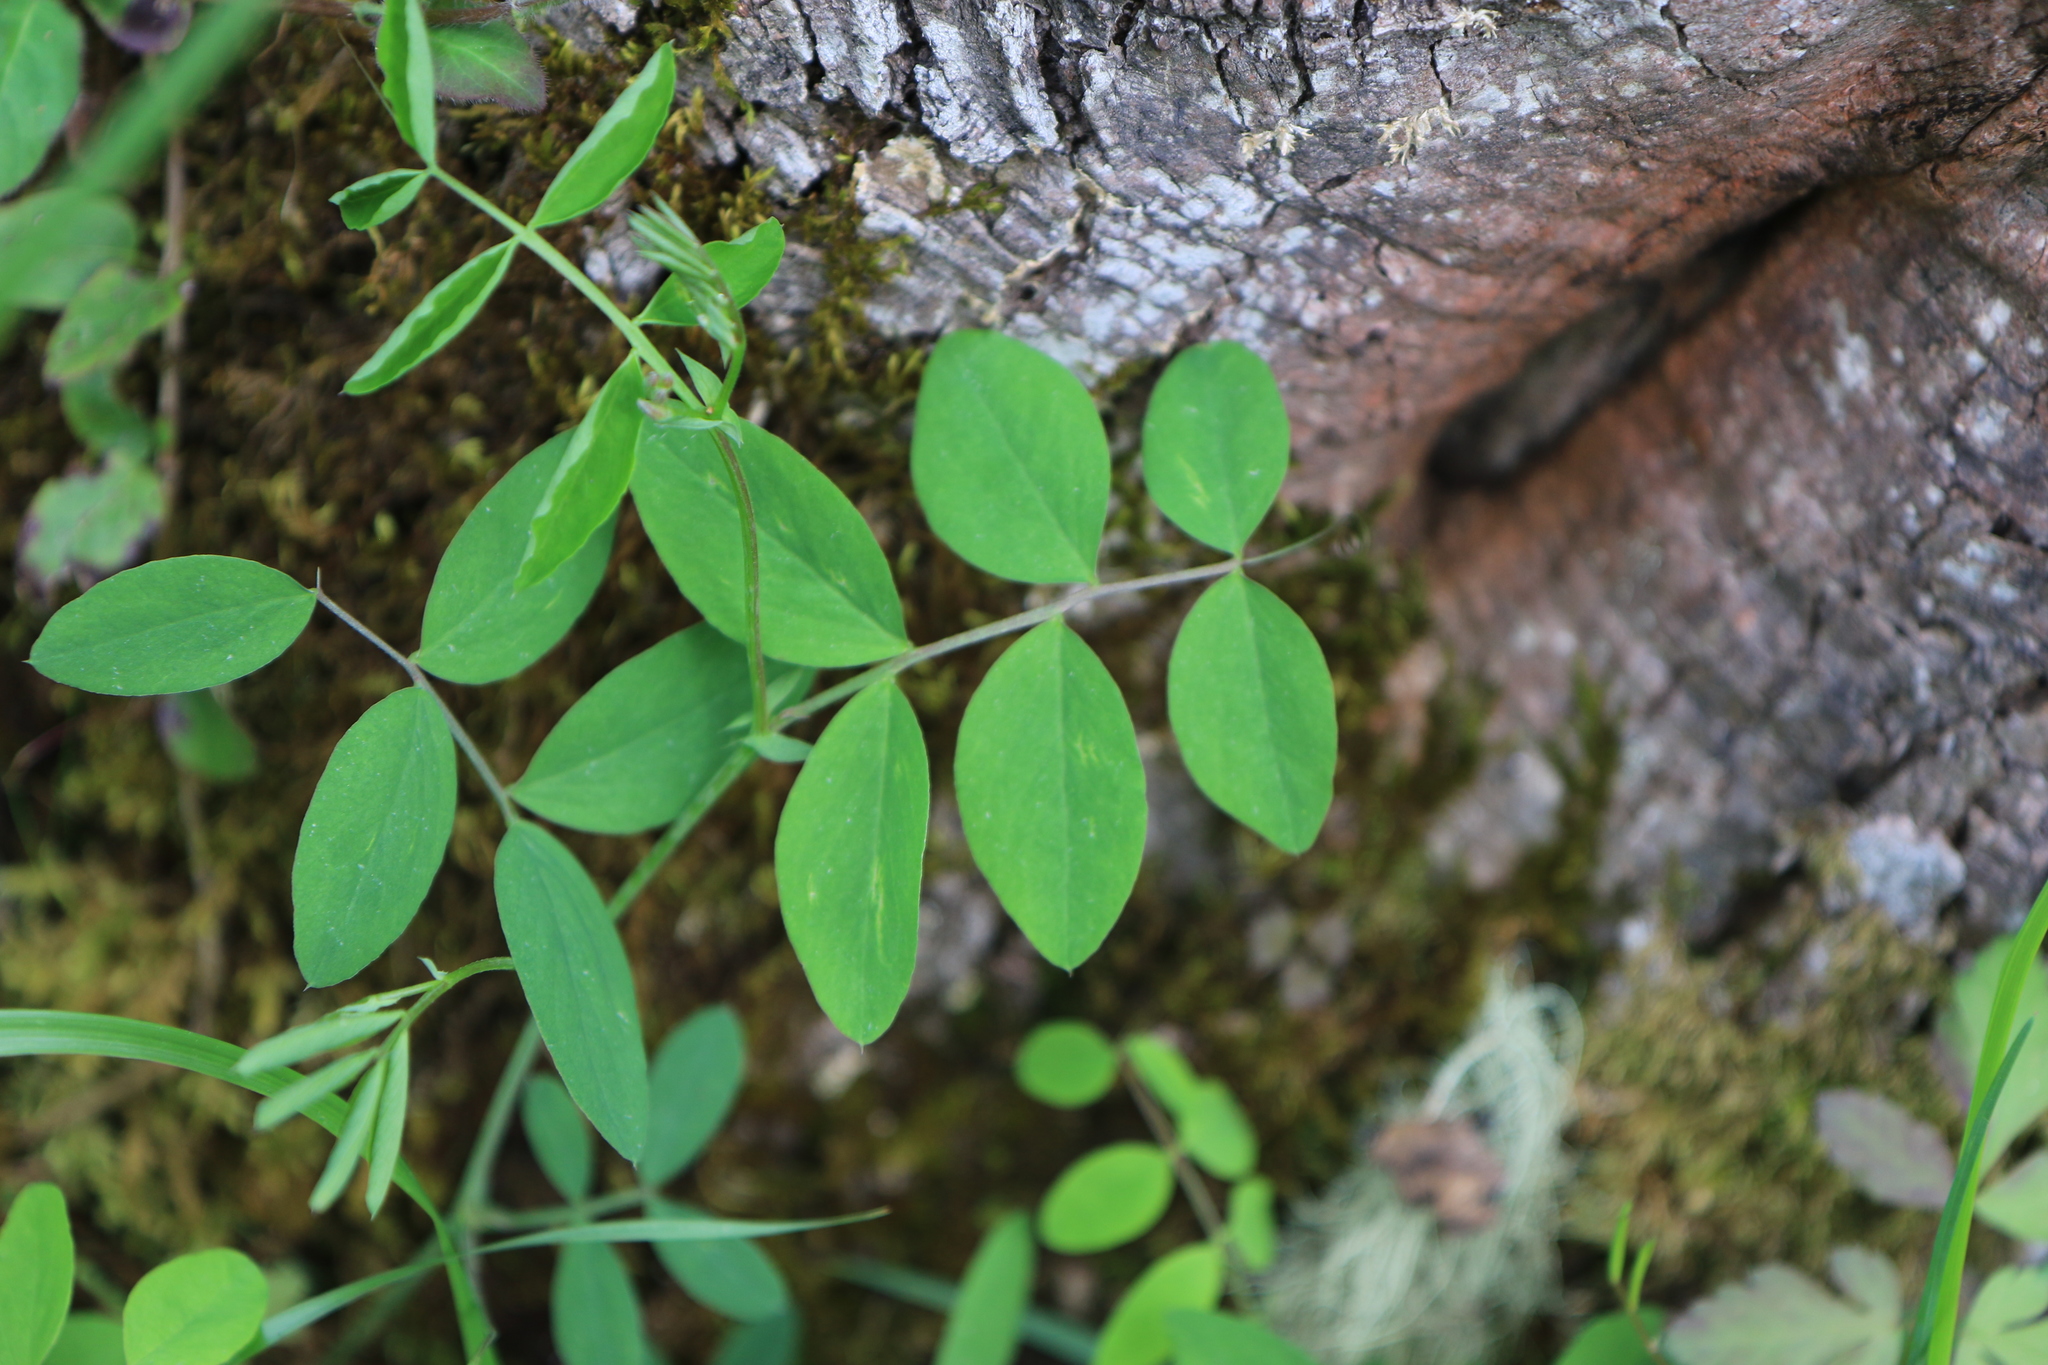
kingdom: Plantae
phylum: Tracheophyta
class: Magnoliopsida
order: Fabales
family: Fabaceae
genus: Lathyrus
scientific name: Lathyrus nevadensis
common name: Sierra nevada peavine
